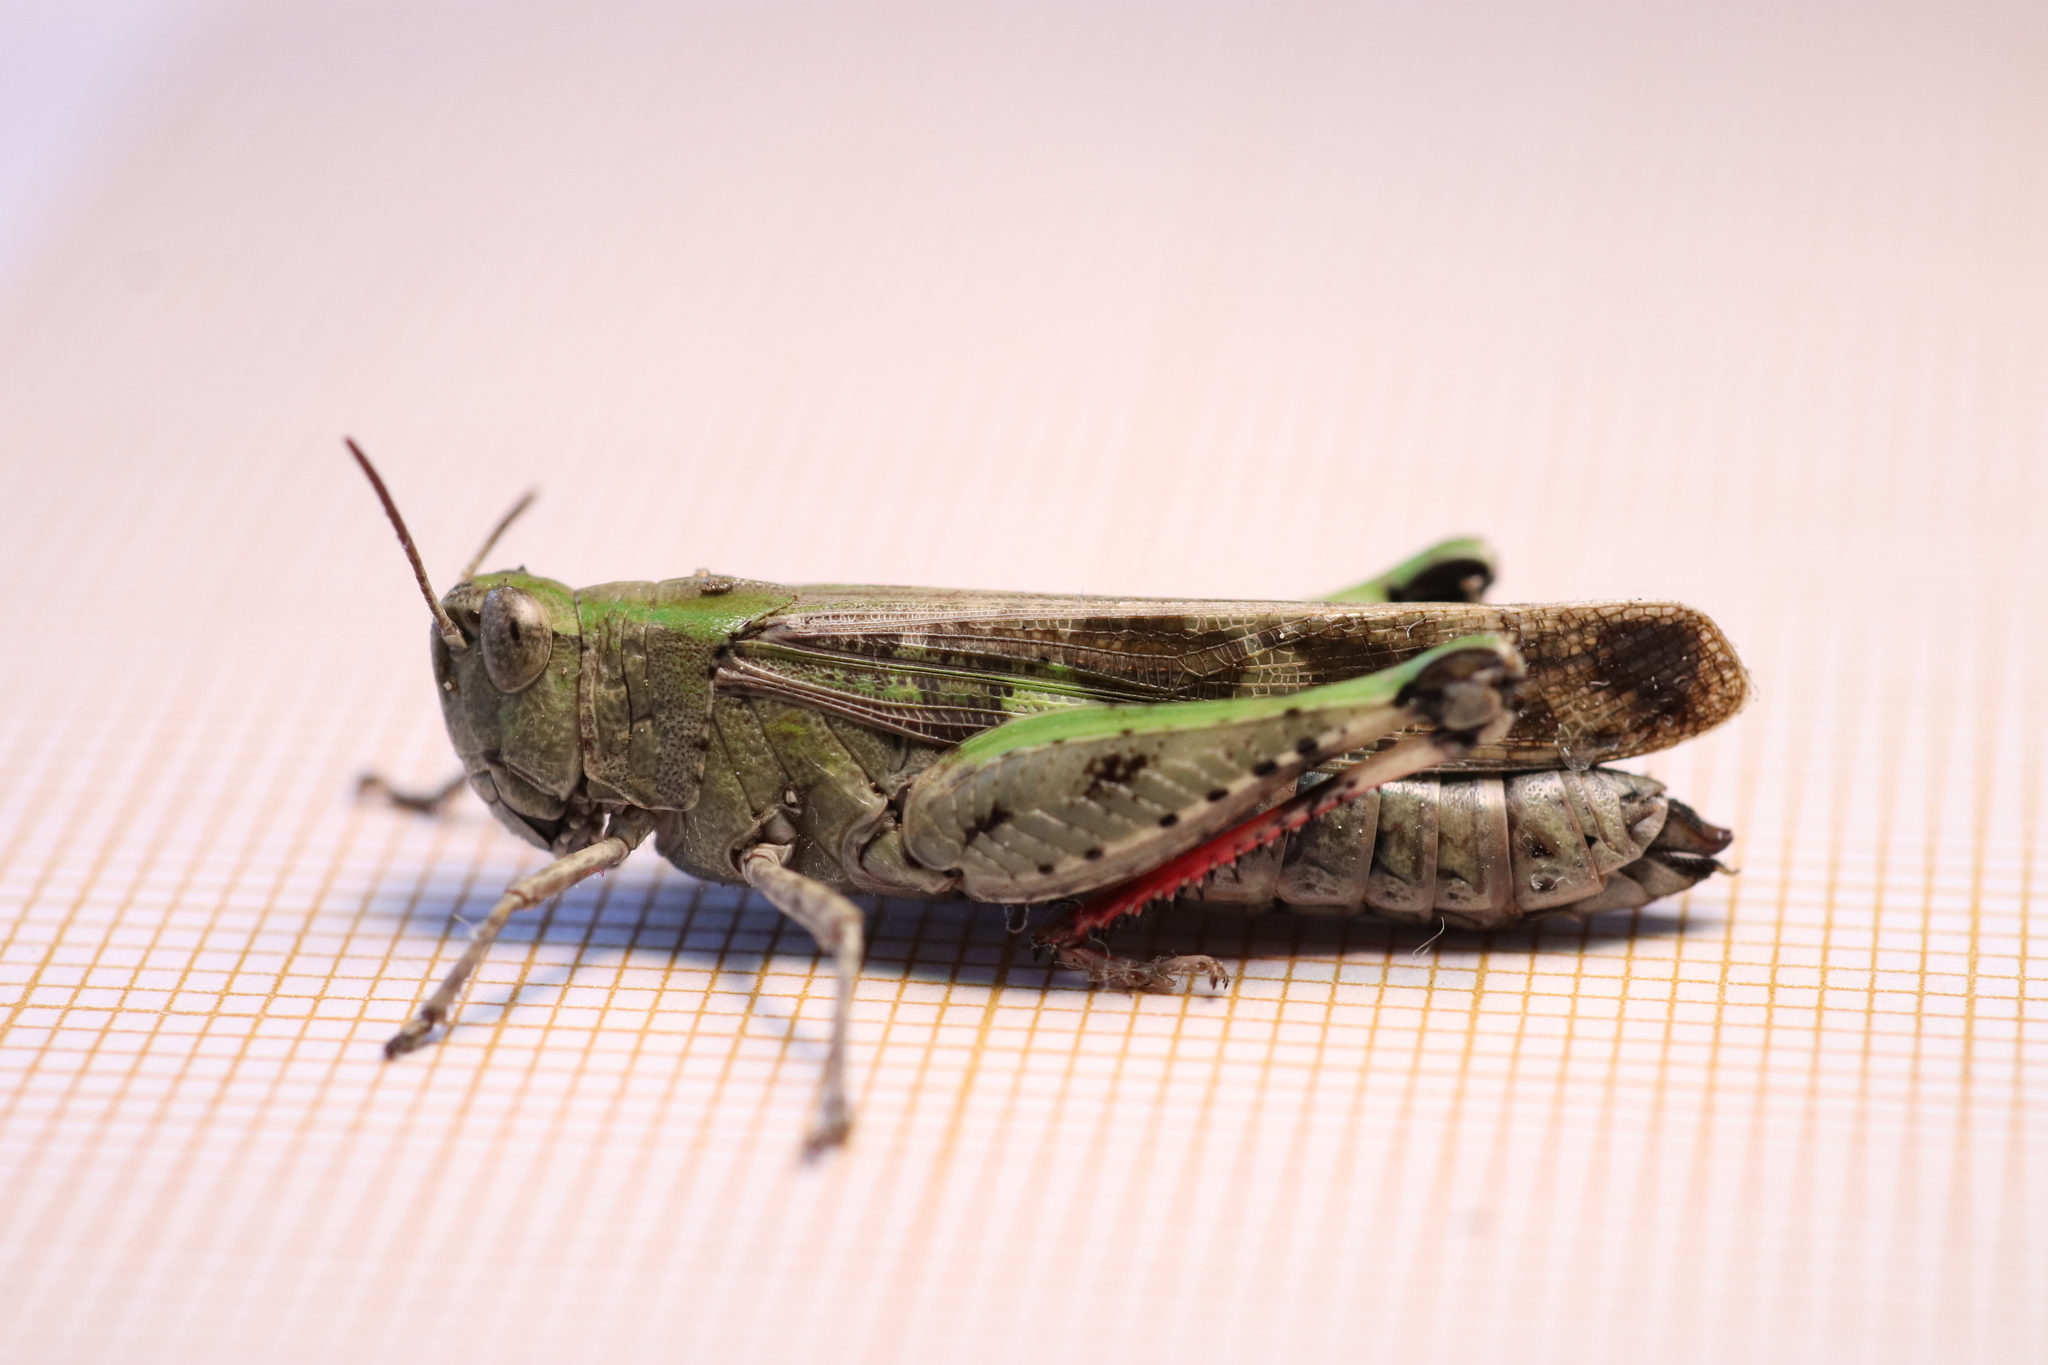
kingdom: Animalia
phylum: Arthropoda
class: Insecta
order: Orthoptera
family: Acrididae
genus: Aiolopus
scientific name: Aiolopus strepens
